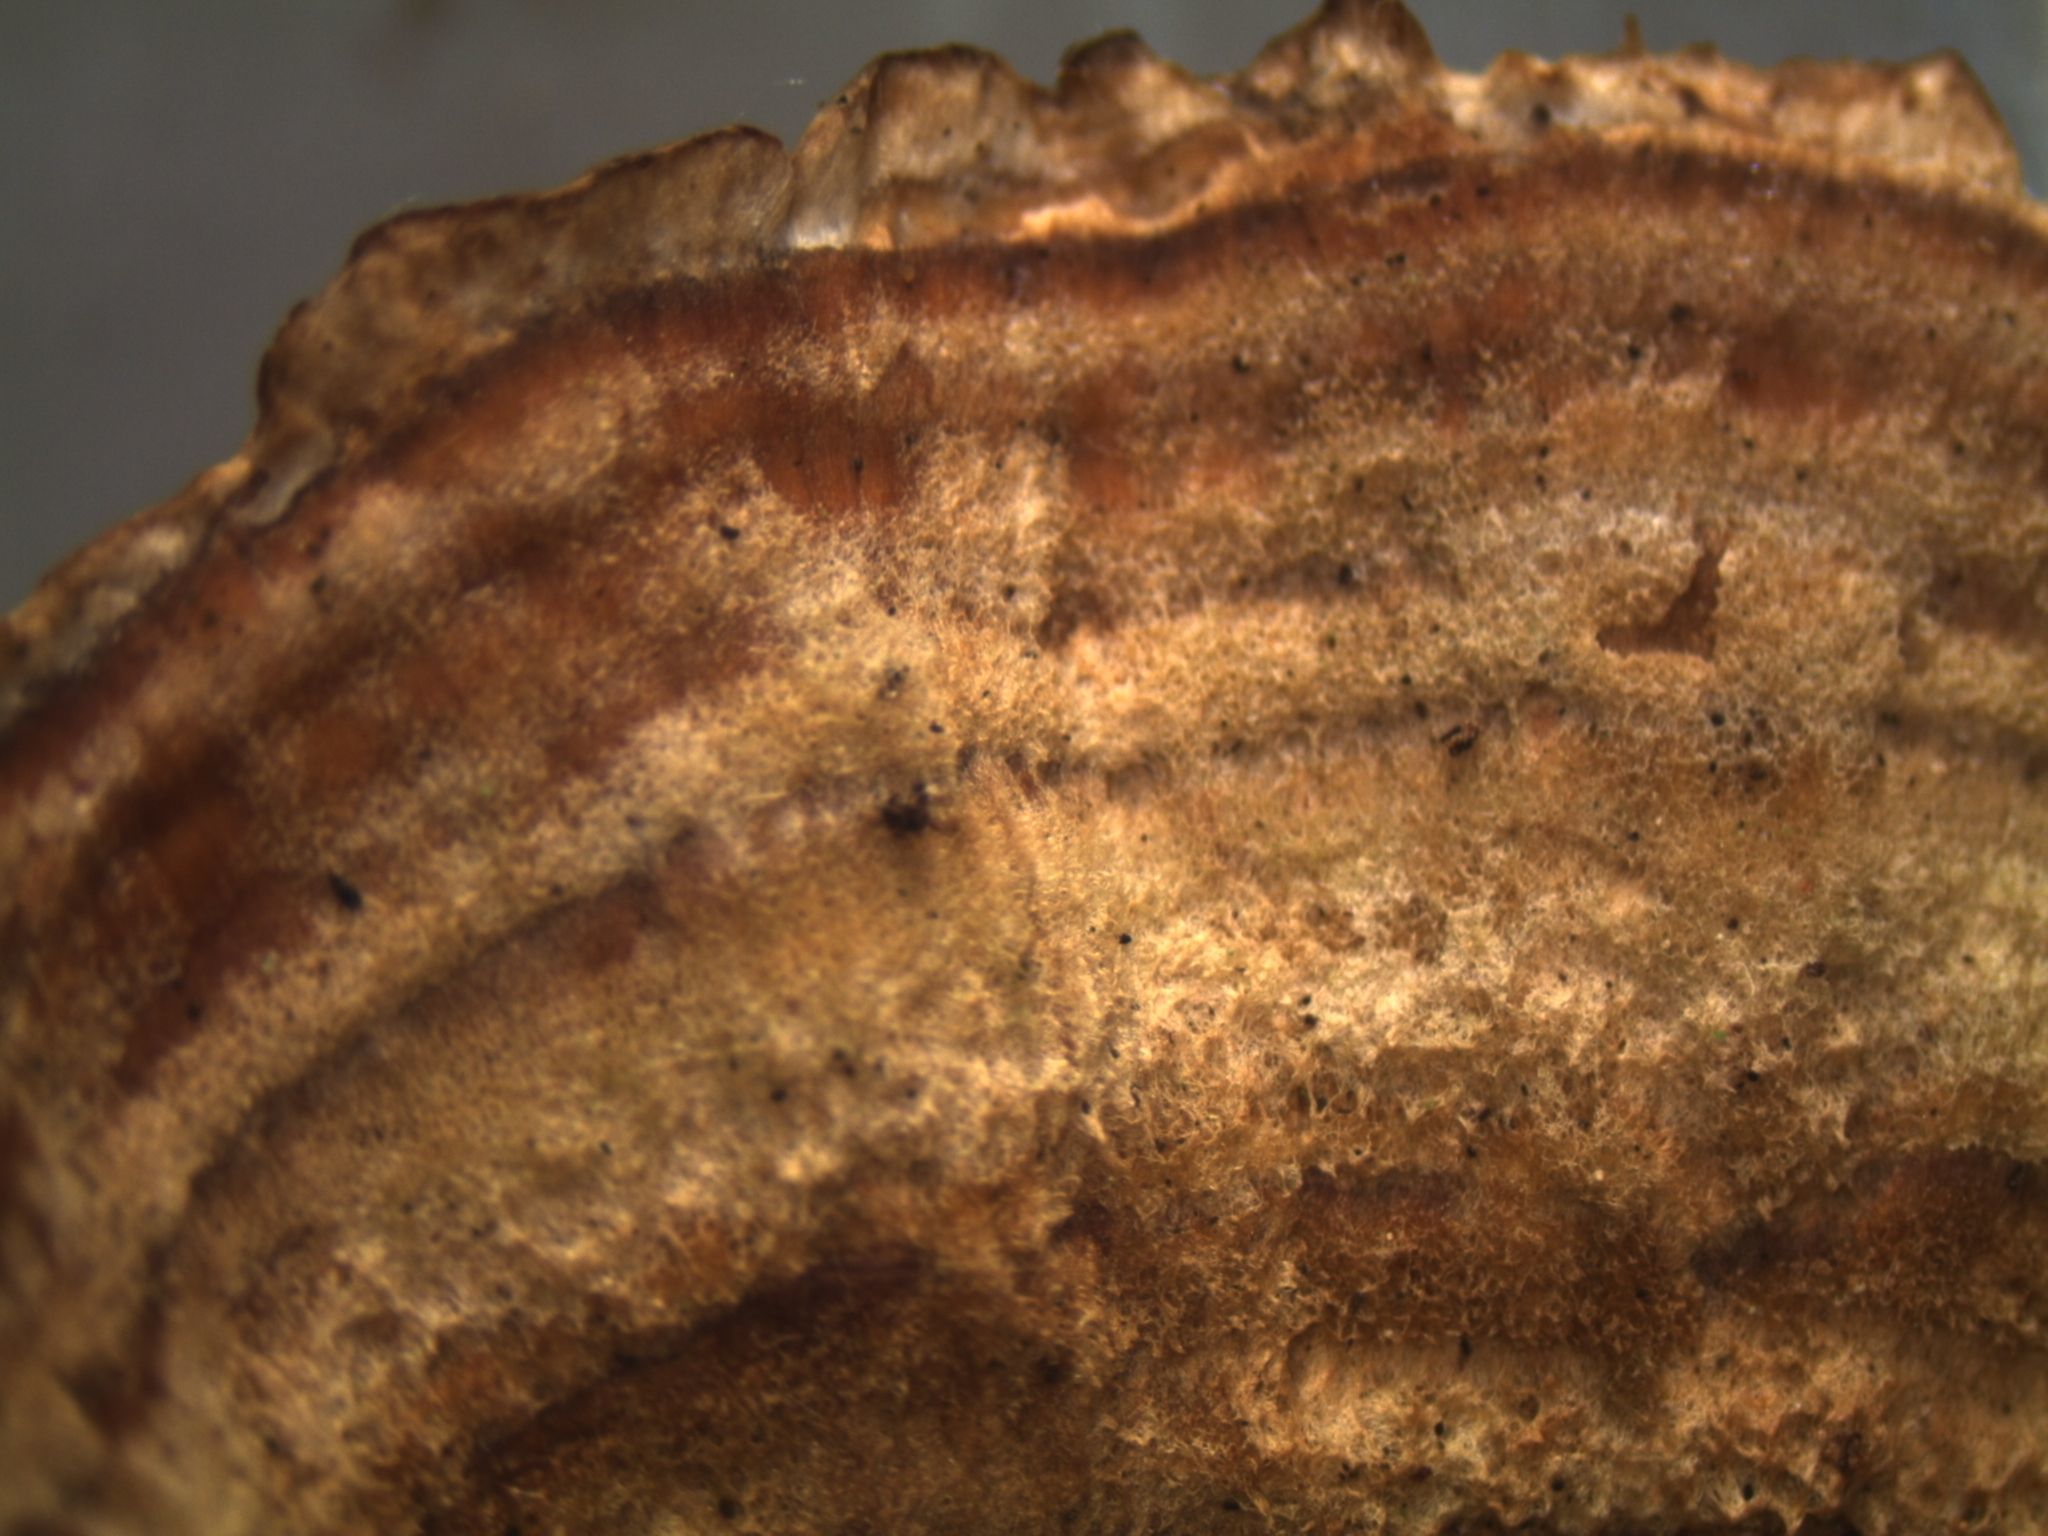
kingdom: Fungi
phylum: Basidiomycota
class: Agaricomycetes
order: Polyporales
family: Polyporaceae
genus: Trametes
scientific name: Trametes versicolor
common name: Turkeytail
